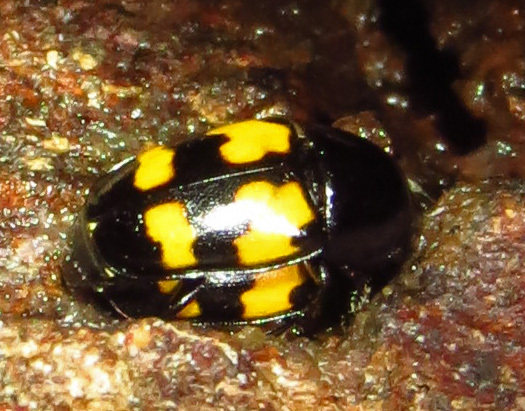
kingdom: Animalia
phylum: Arthropoda
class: Insecta
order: Coleoptera
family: Nitidulidae
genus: Glischrochilus
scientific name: Glischrochilus fasciatus
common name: Picnic beetle
